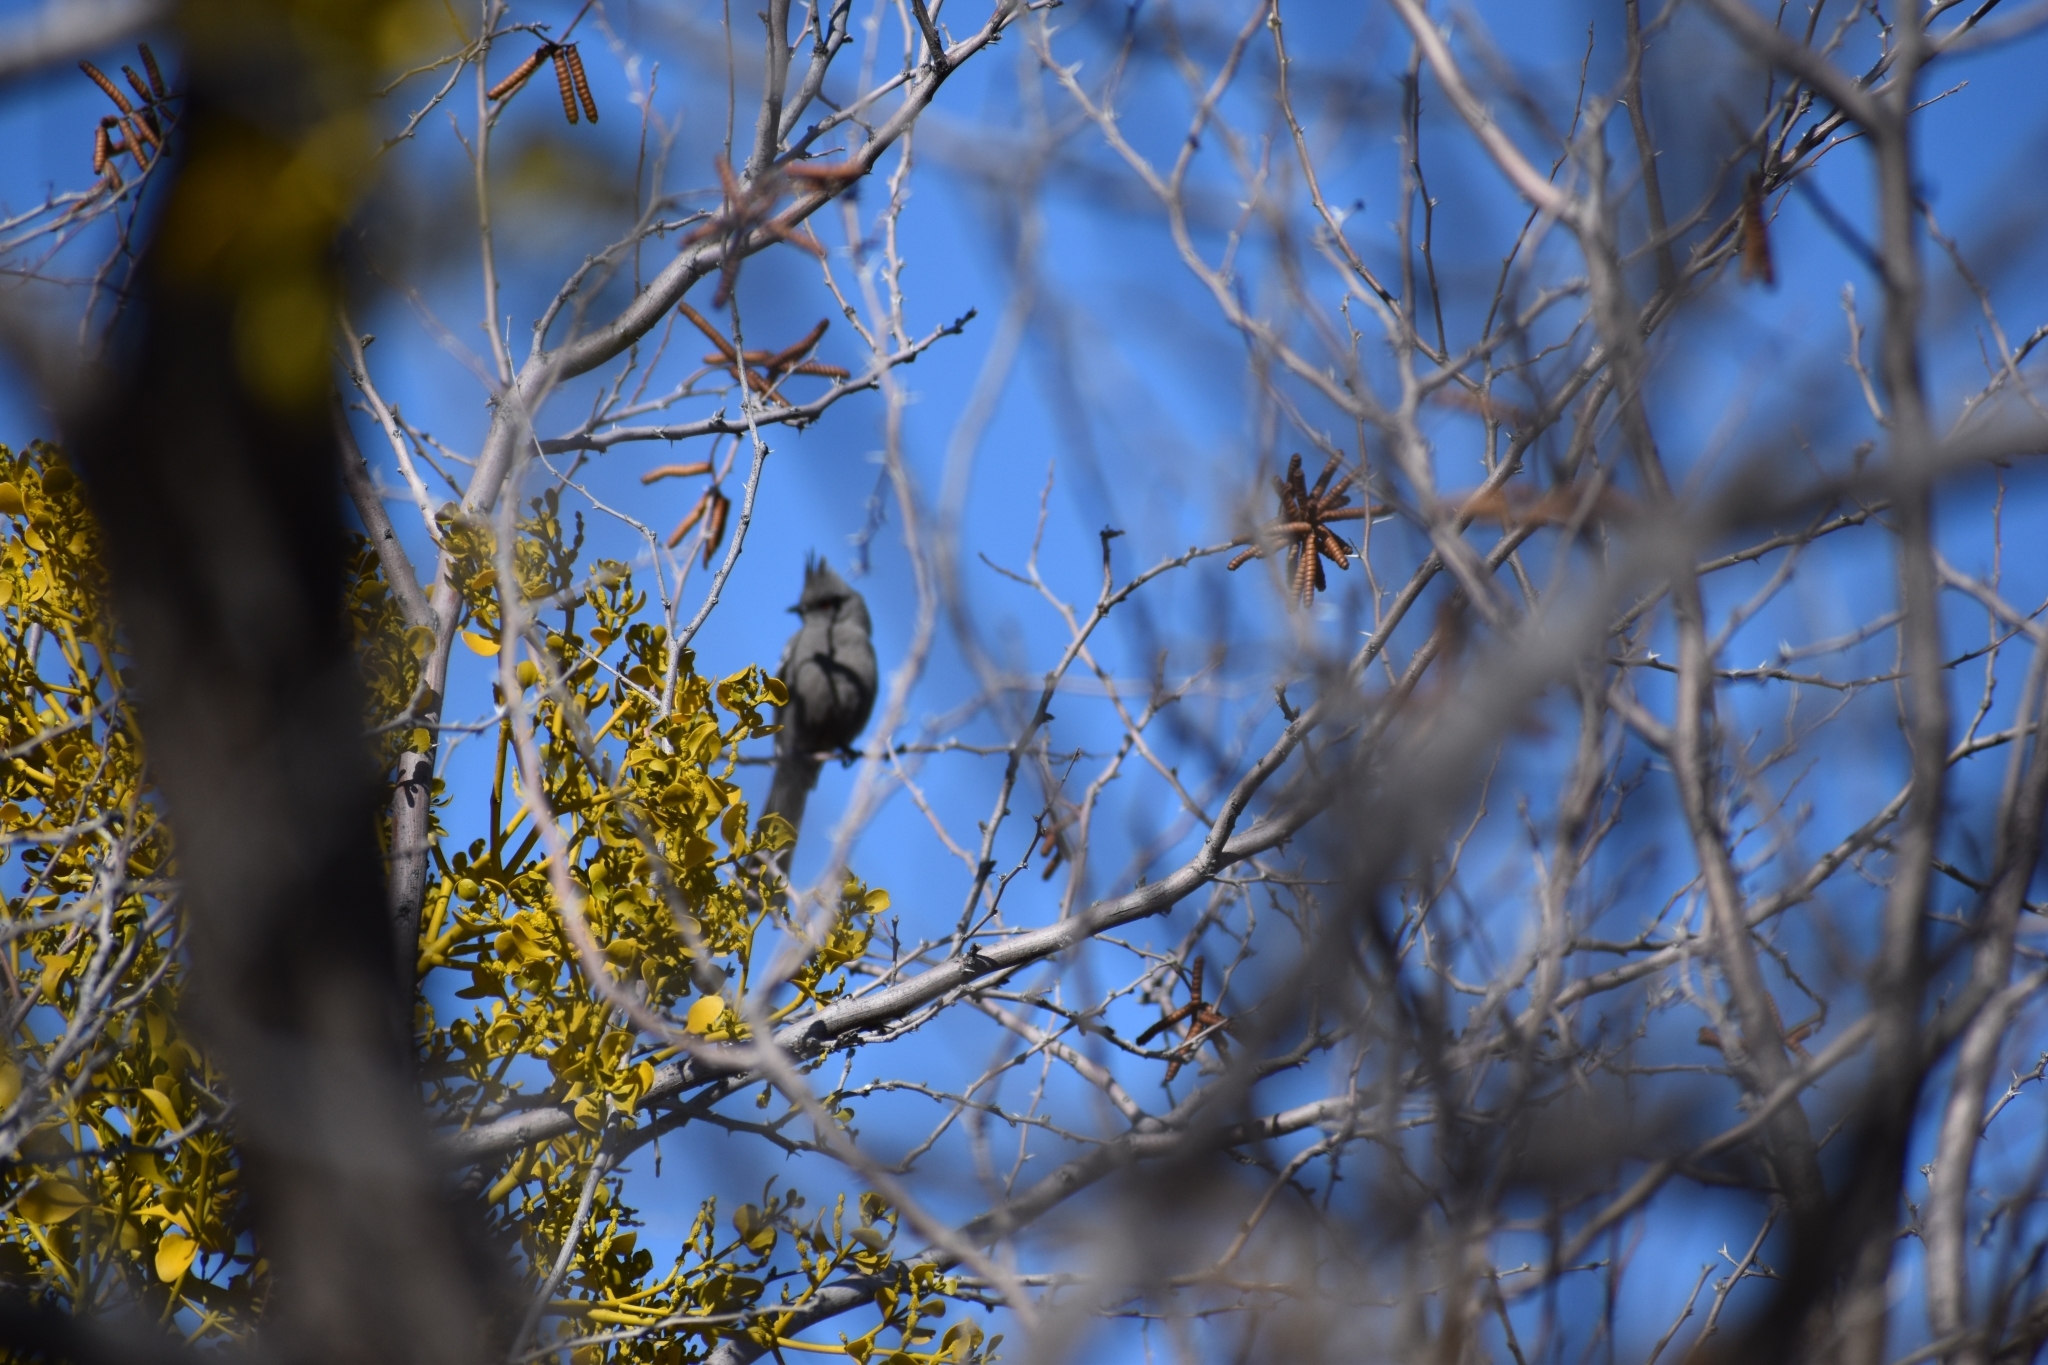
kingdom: Animalia
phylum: Chordata
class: Aves
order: Passeriformes
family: Ptilogonatidae
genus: Phainopepla
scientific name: Phainopepla nitens
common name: Phainopepla
